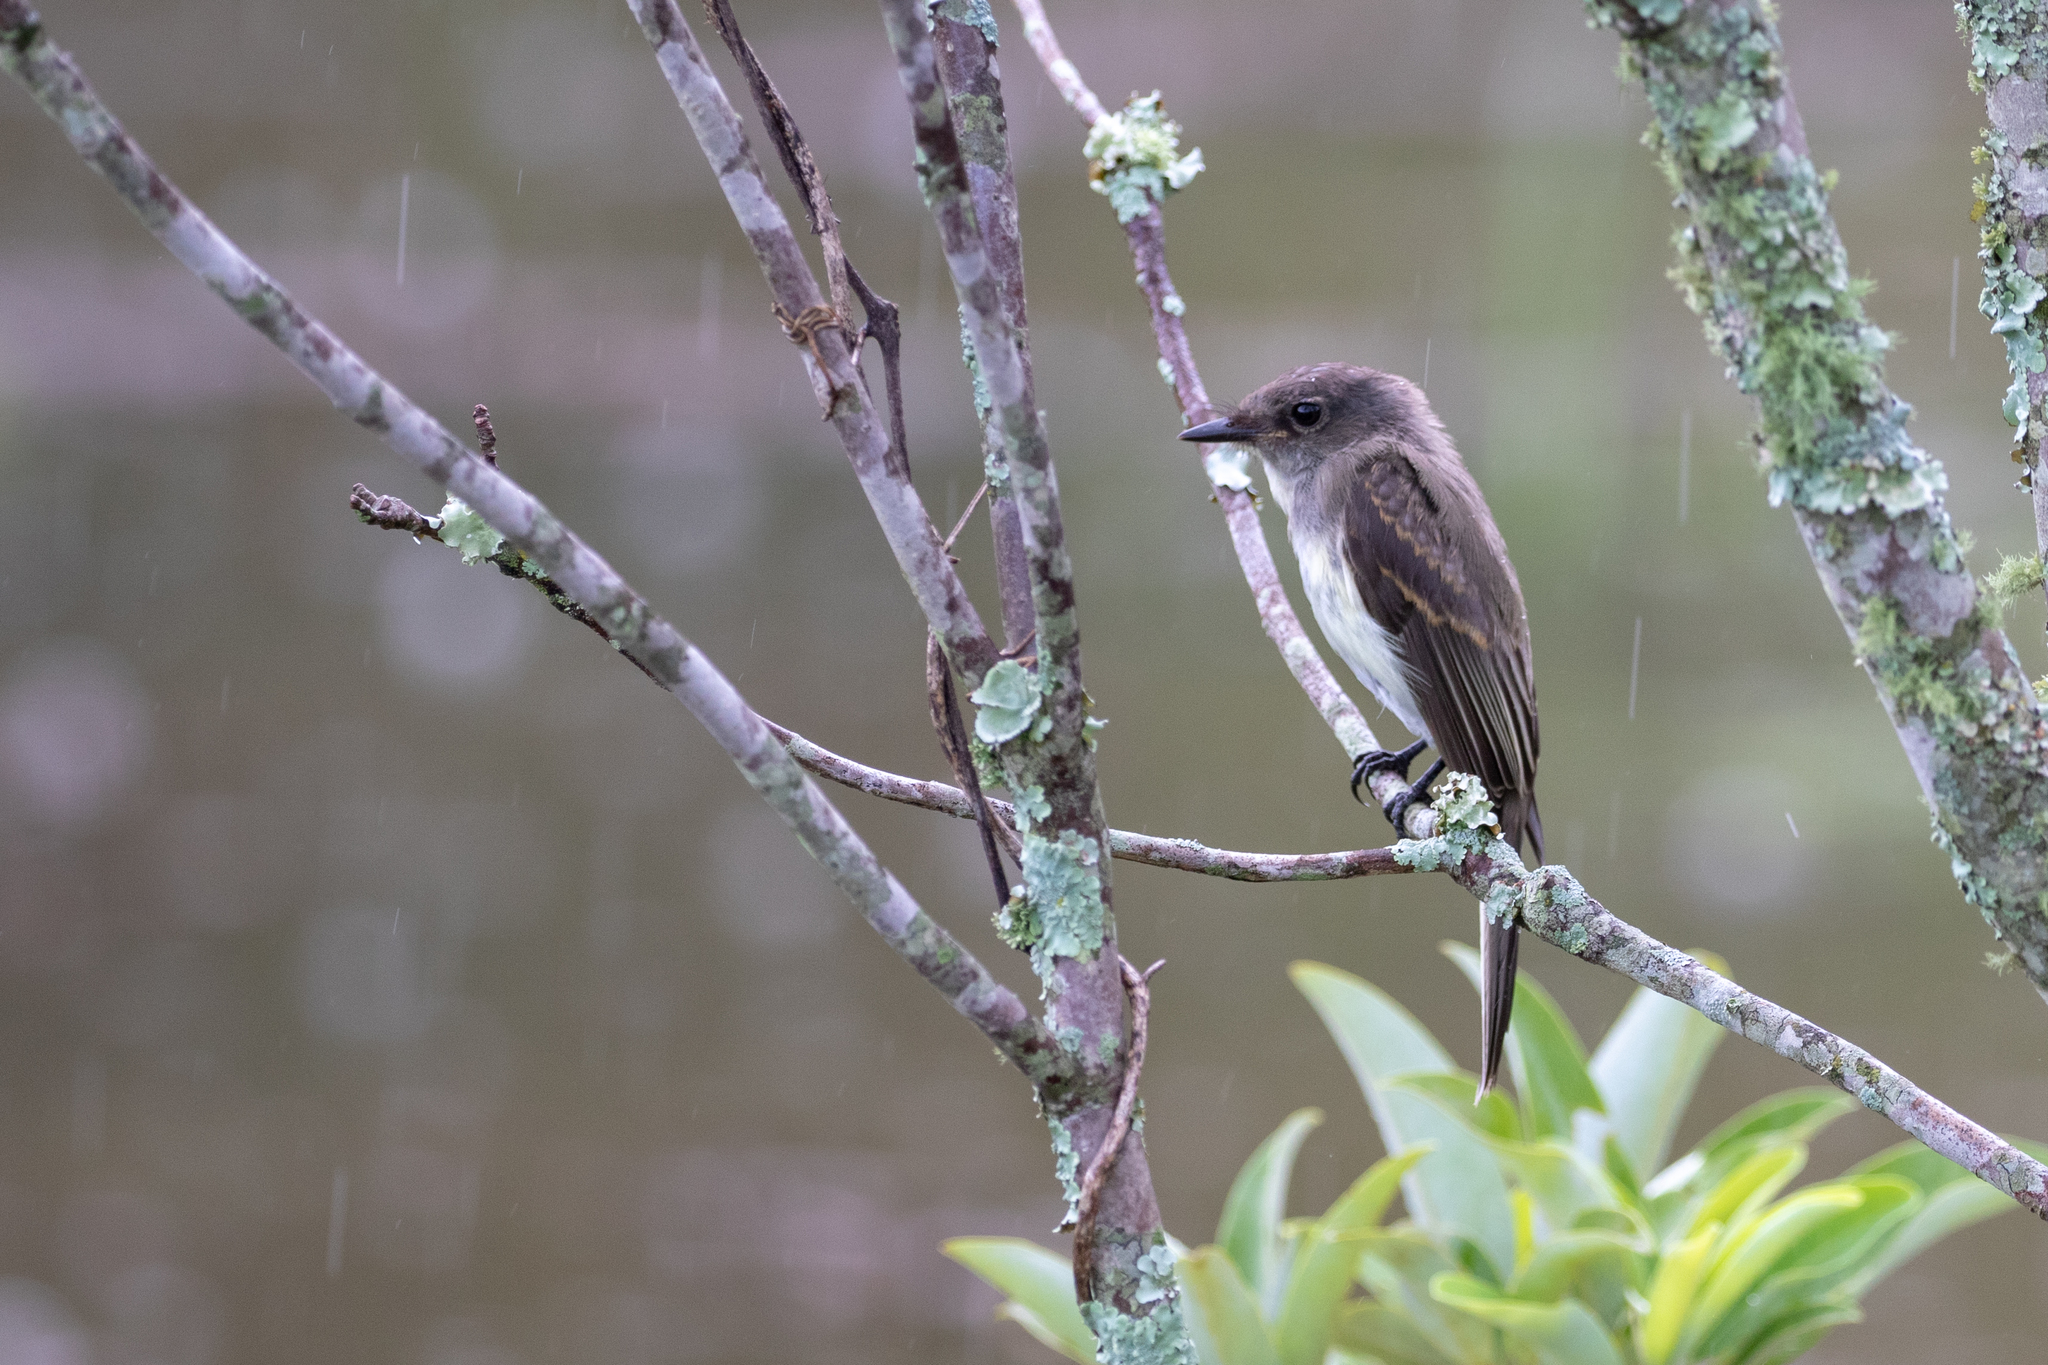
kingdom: Animalia
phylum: Chordata
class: Aves
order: Passeriformes
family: Tyrannidae
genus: Sayornis
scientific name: Sayornis phoebe
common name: Eastern phoebe
